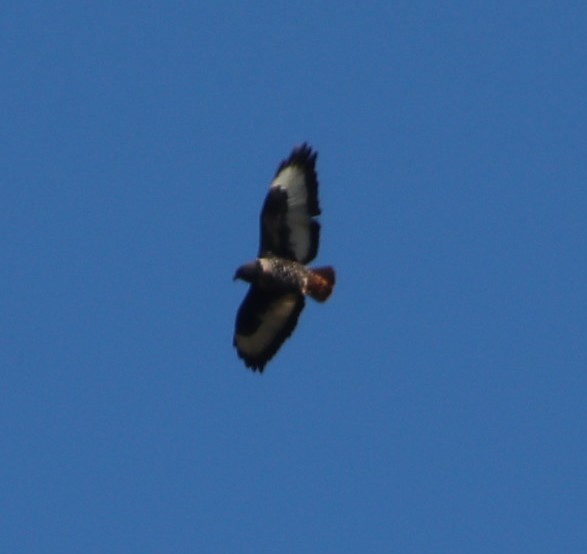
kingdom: Animalia
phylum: Chordata
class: Aves
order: Accipitriformes
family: Accipitridae
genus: Buteo
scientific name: Buteo rufofuscus
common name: Jackal buzzard
